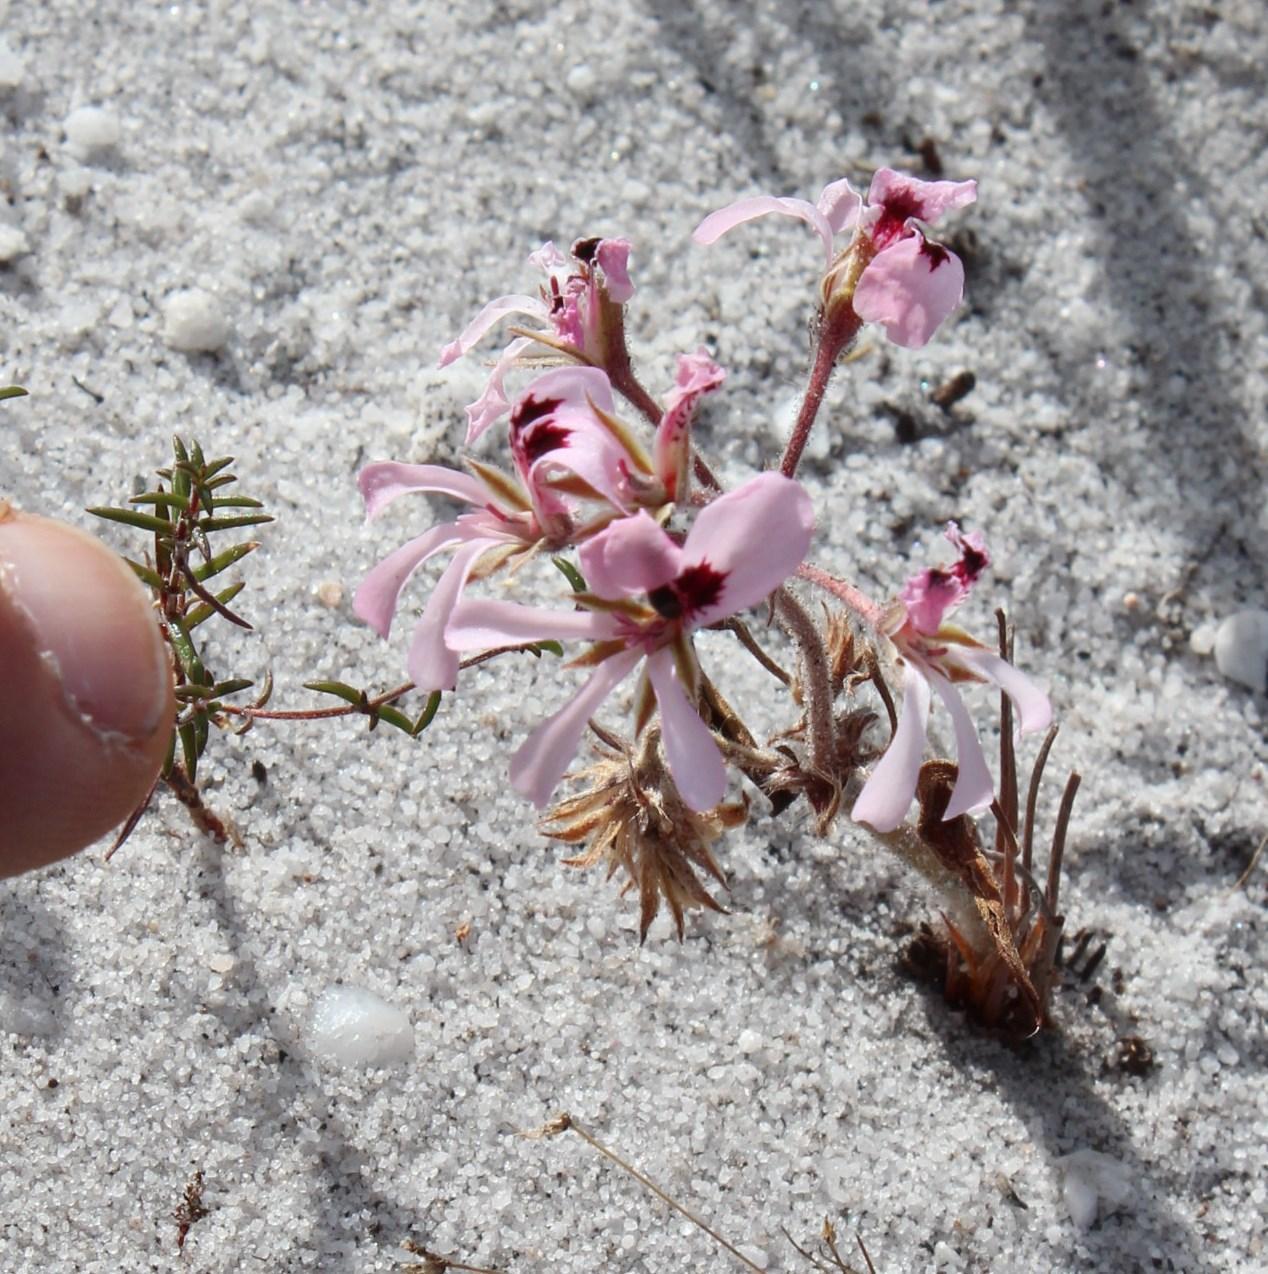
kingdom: Plantae
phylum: Tracheophyta
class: Magnoliopsida
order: Geraniales
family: Geraniaceae
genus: Pelargonium
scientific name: Pelargonium psammophilum
